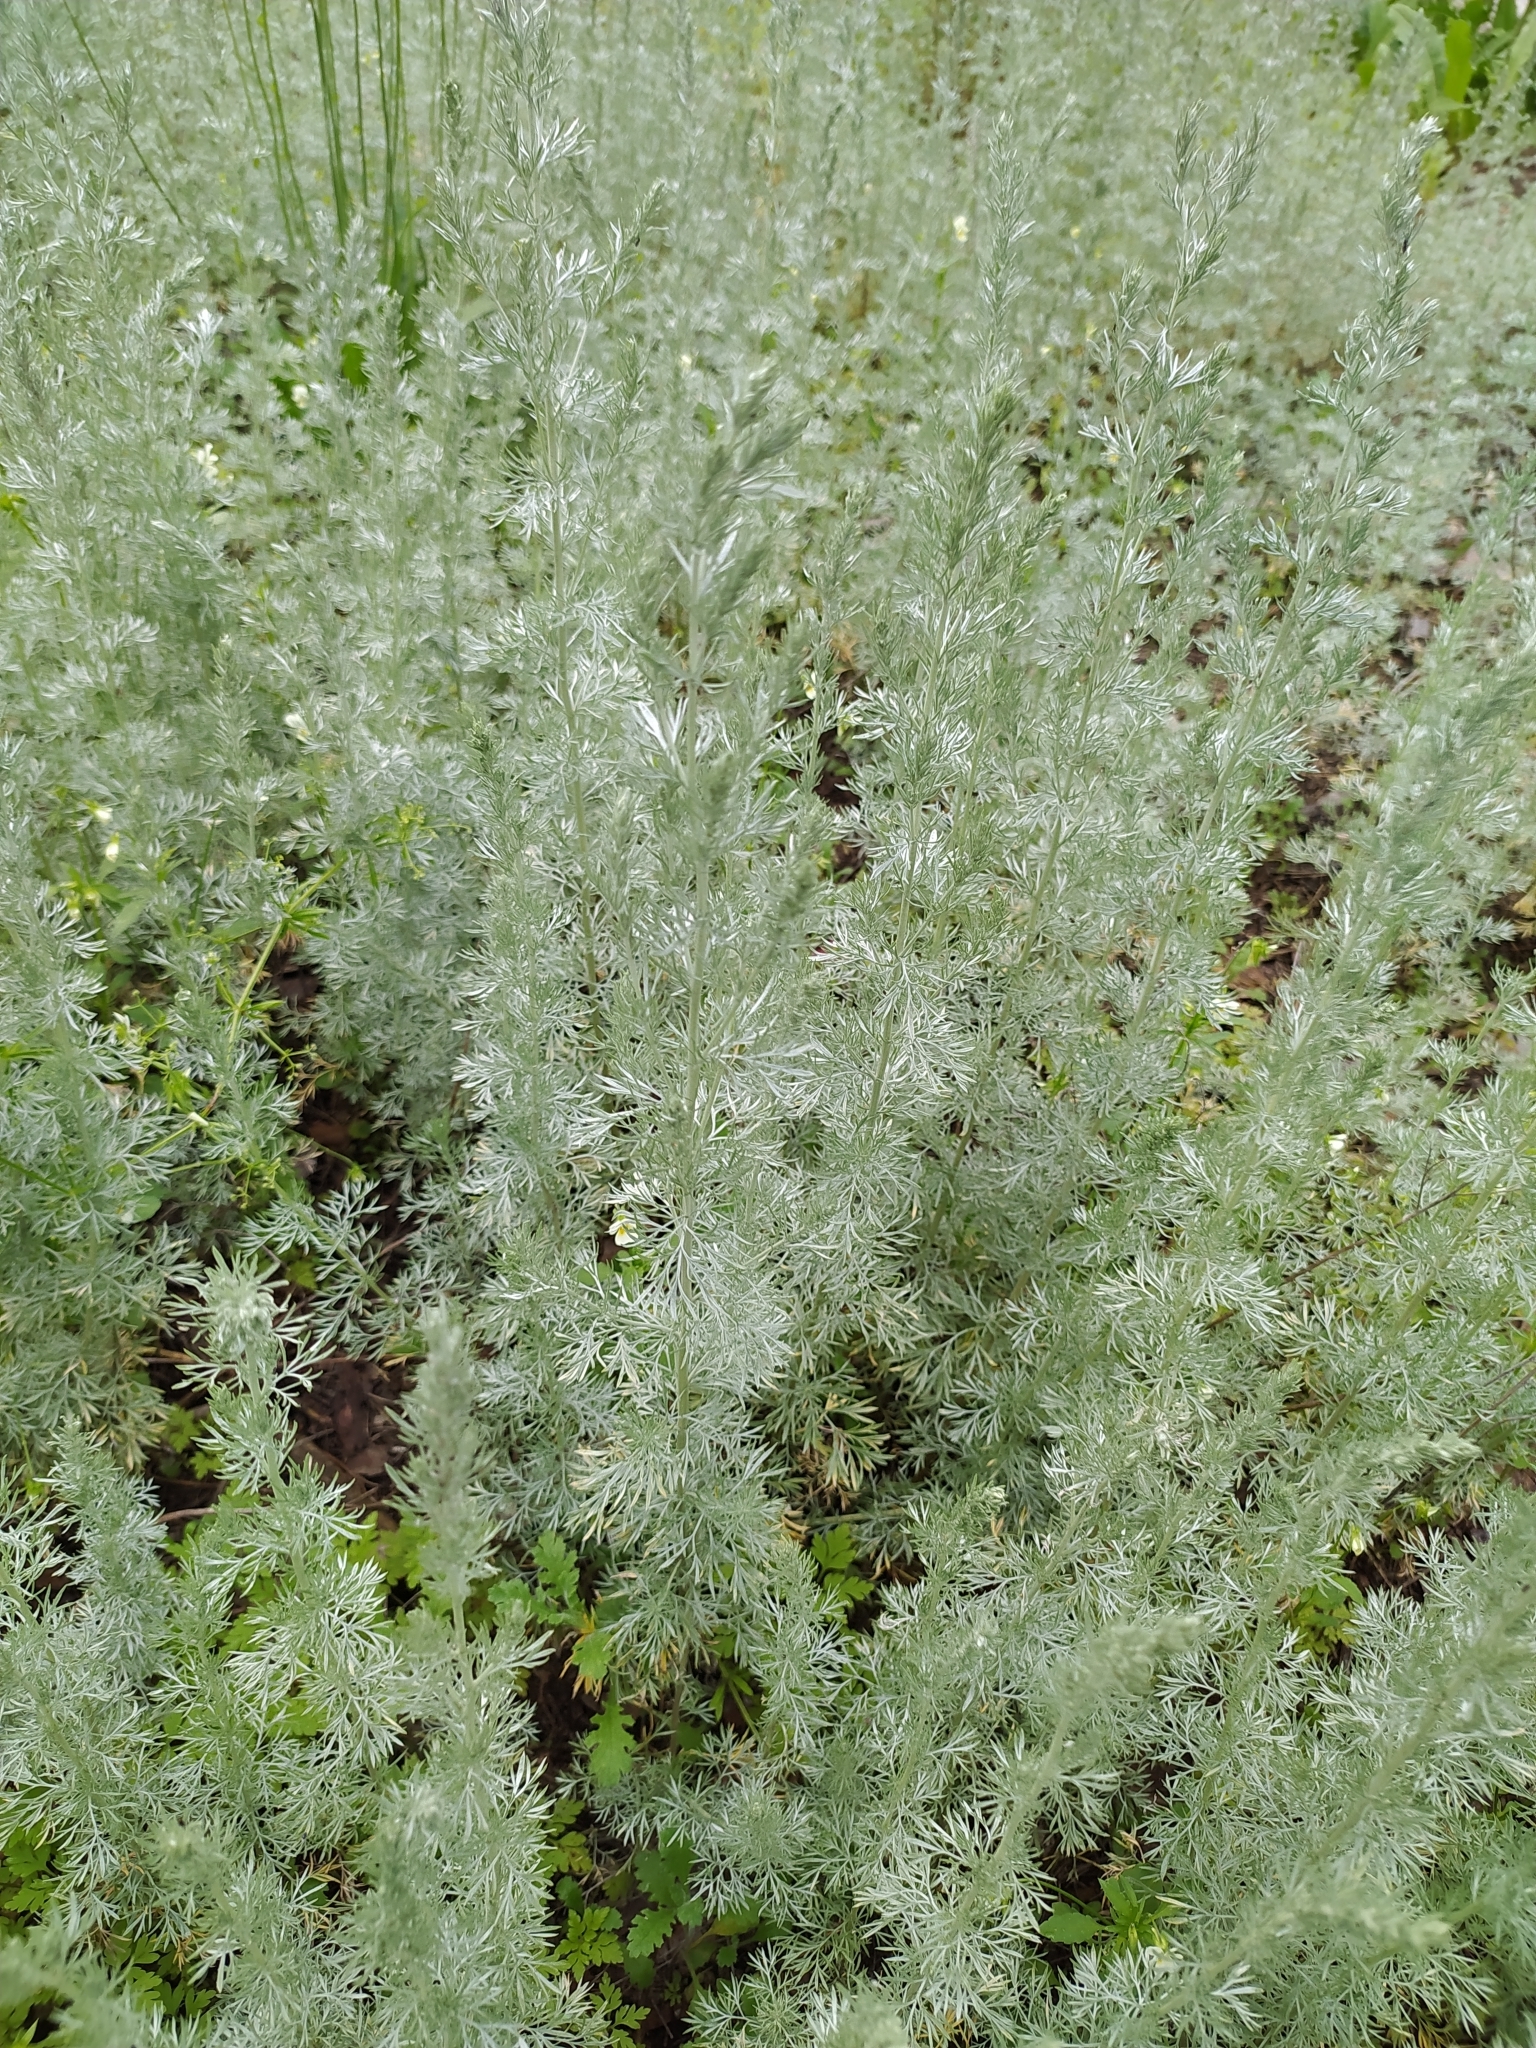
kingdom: Plantae
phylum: Tracheophyta
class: Magnoliopsida
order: Asterales
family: Asteraceae
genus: Artemisia
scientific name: Artemisia austriaca
